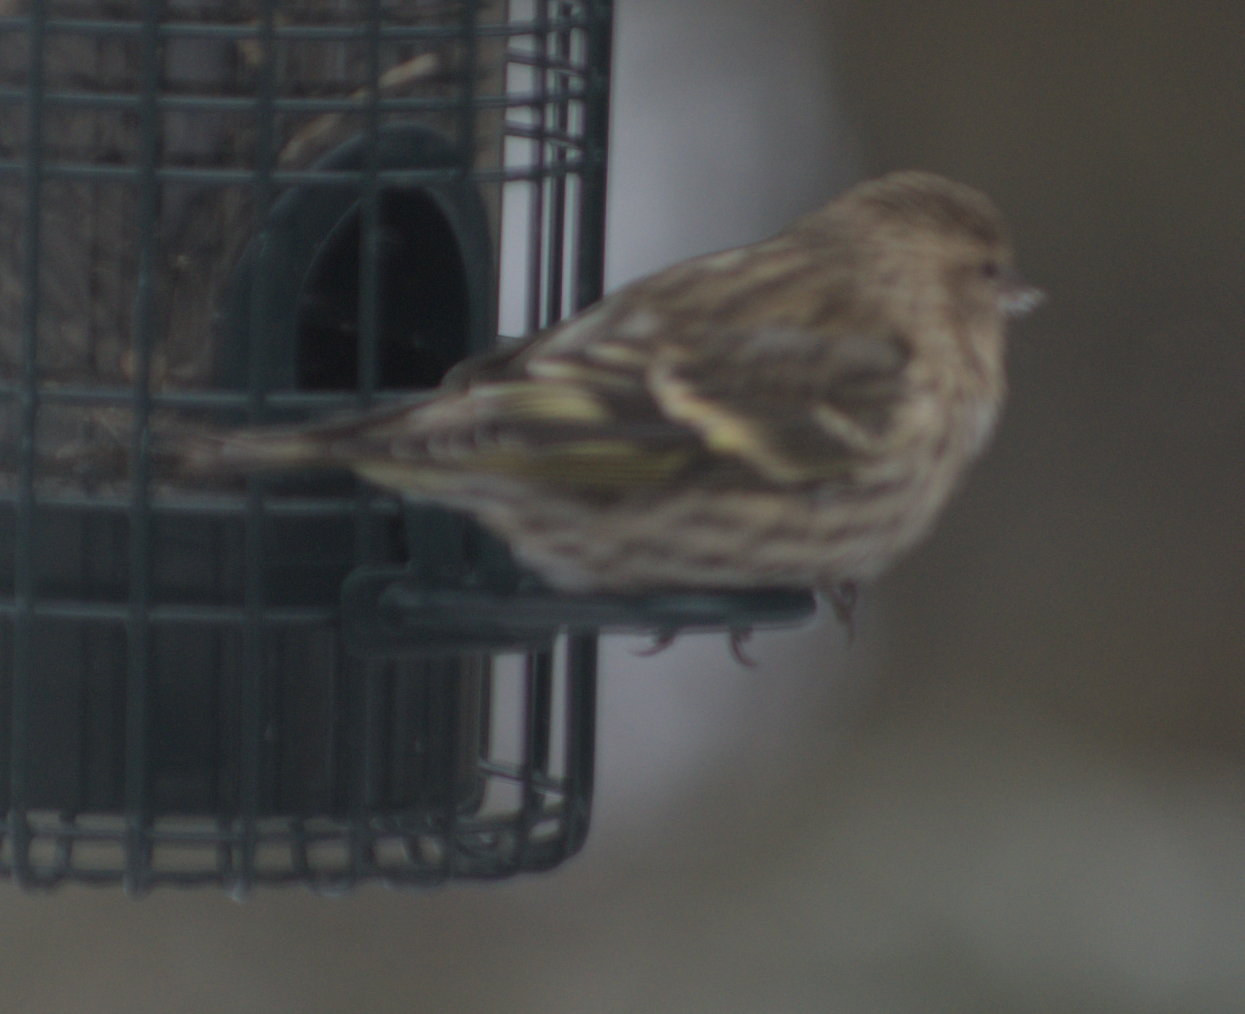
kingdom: Animalia
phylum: Chordata
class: Aves
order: Passeriformes
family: Fringillidae
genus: Spinus
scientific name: Spinus pinus
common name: Pine siskin
